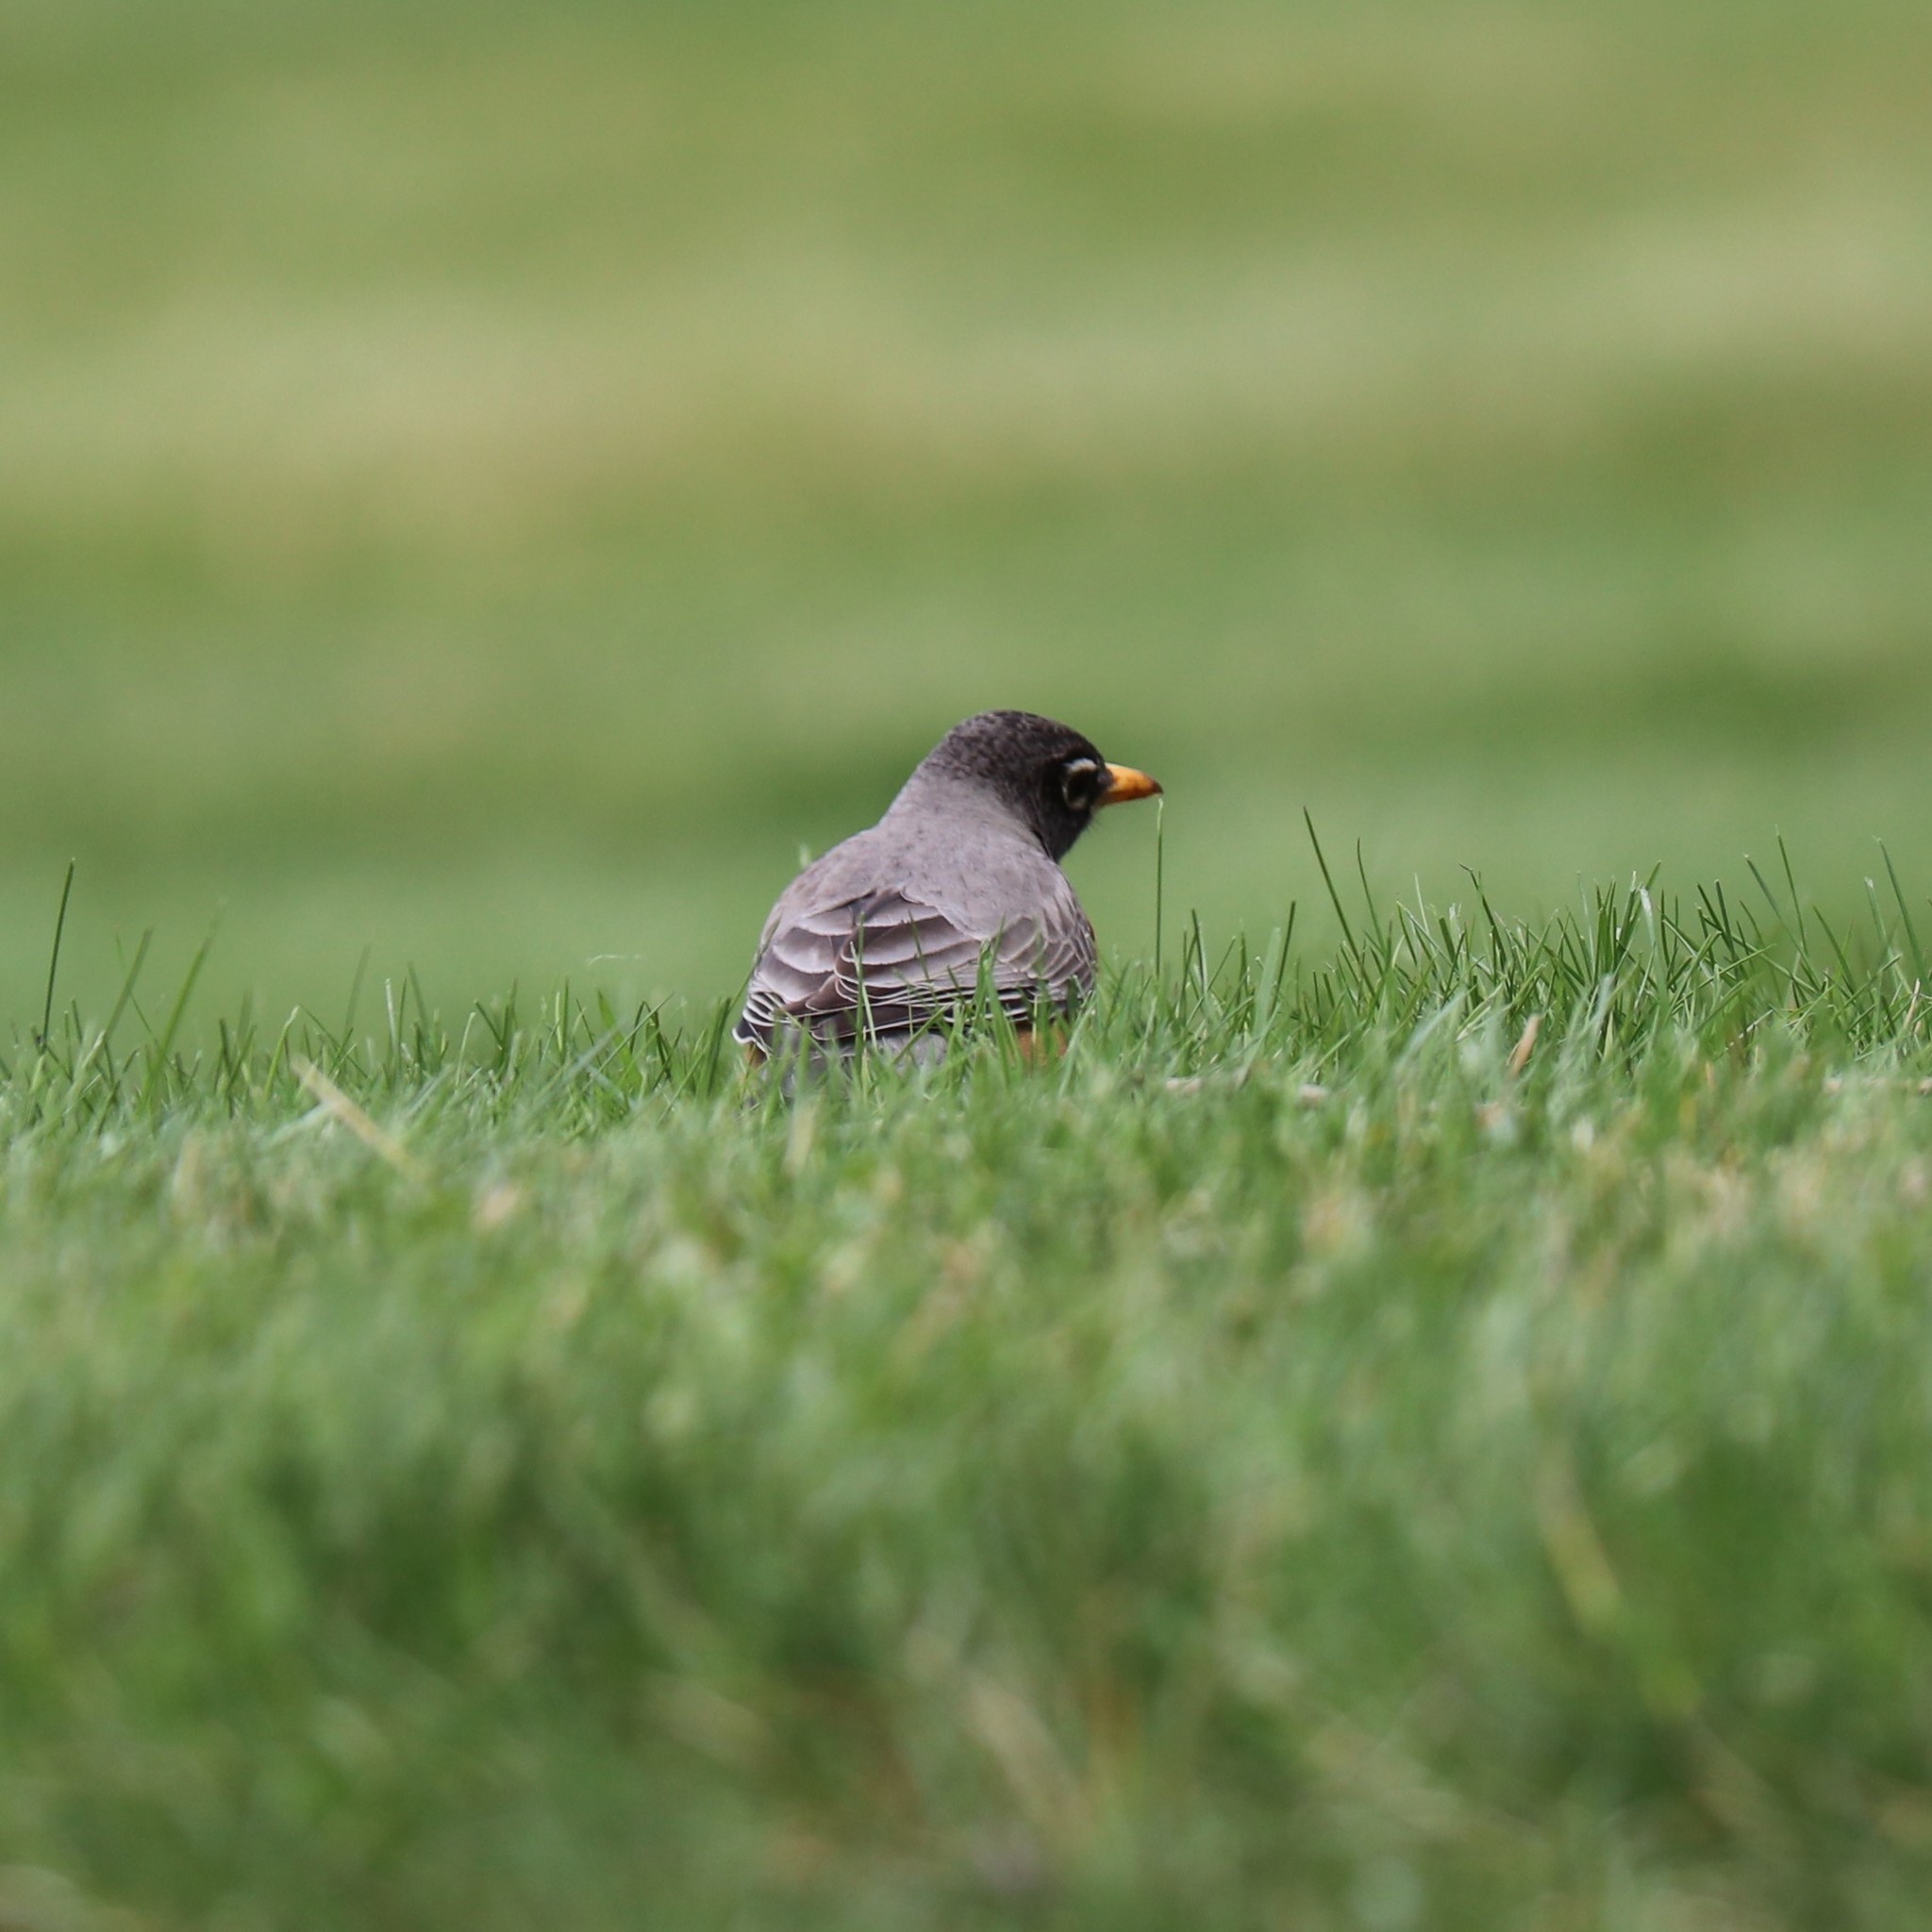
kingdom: Animalia
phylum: Chordata
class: Aves
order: Passeriformes
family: Turdidae
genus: Turdus
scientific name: Turdus migratorius
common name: American robin
